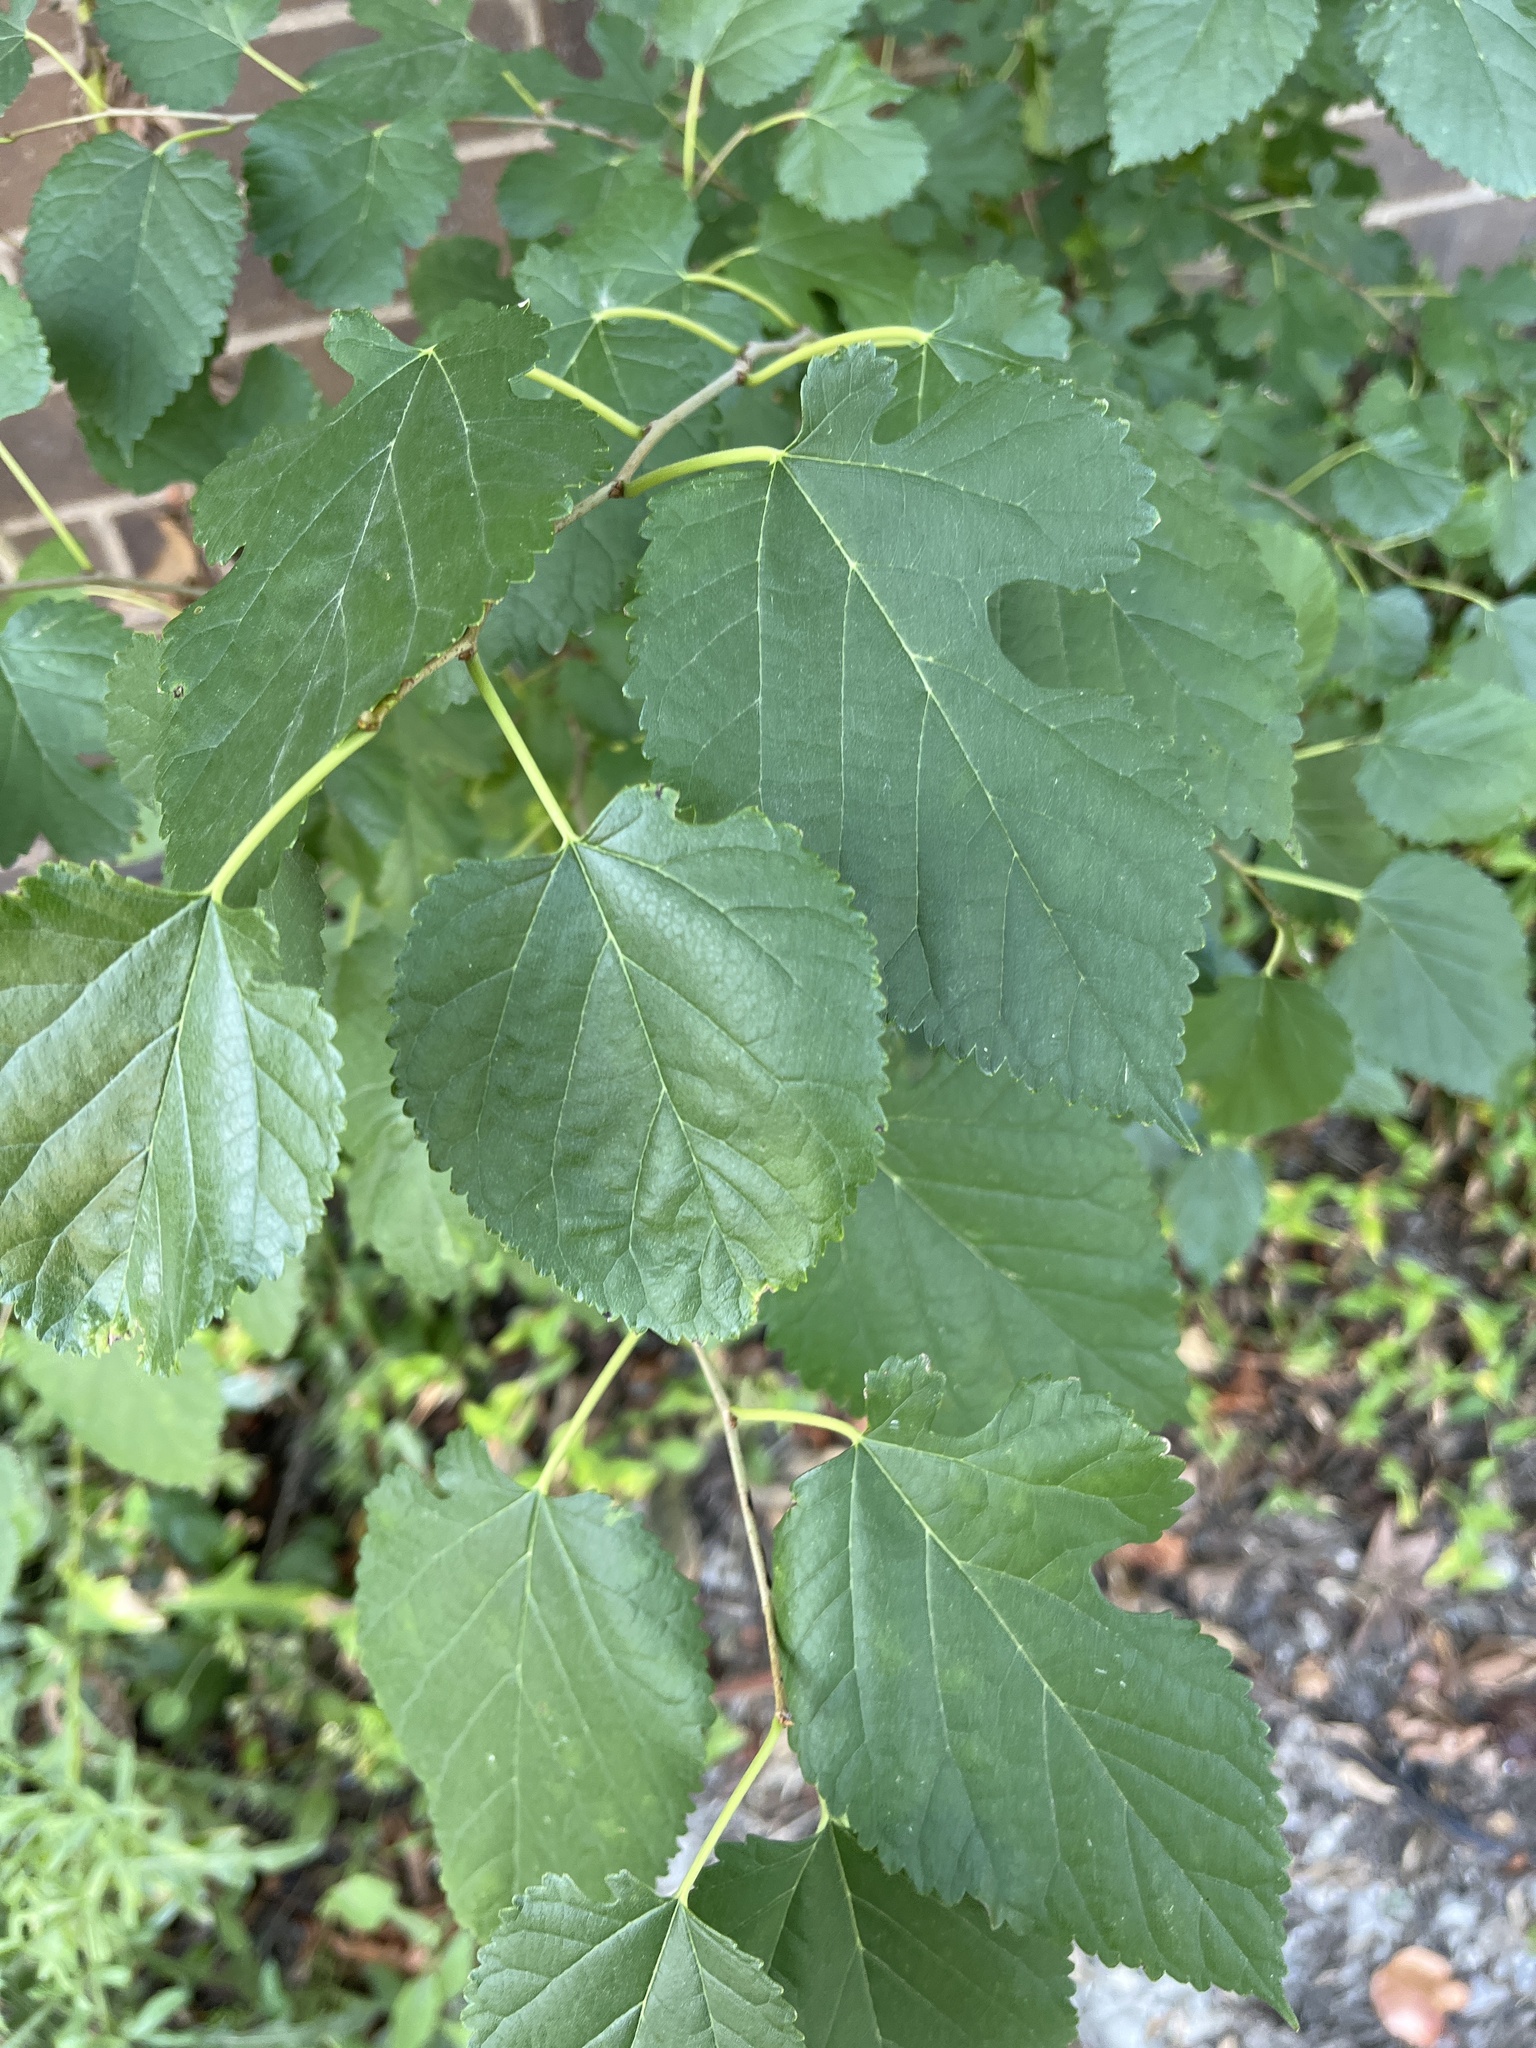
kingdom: Plantae
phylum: Tracheophyta
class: Magnoliopsida
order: Rosales
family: Moraceae
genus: Morus
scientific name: Morus alba
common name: White mulberry
